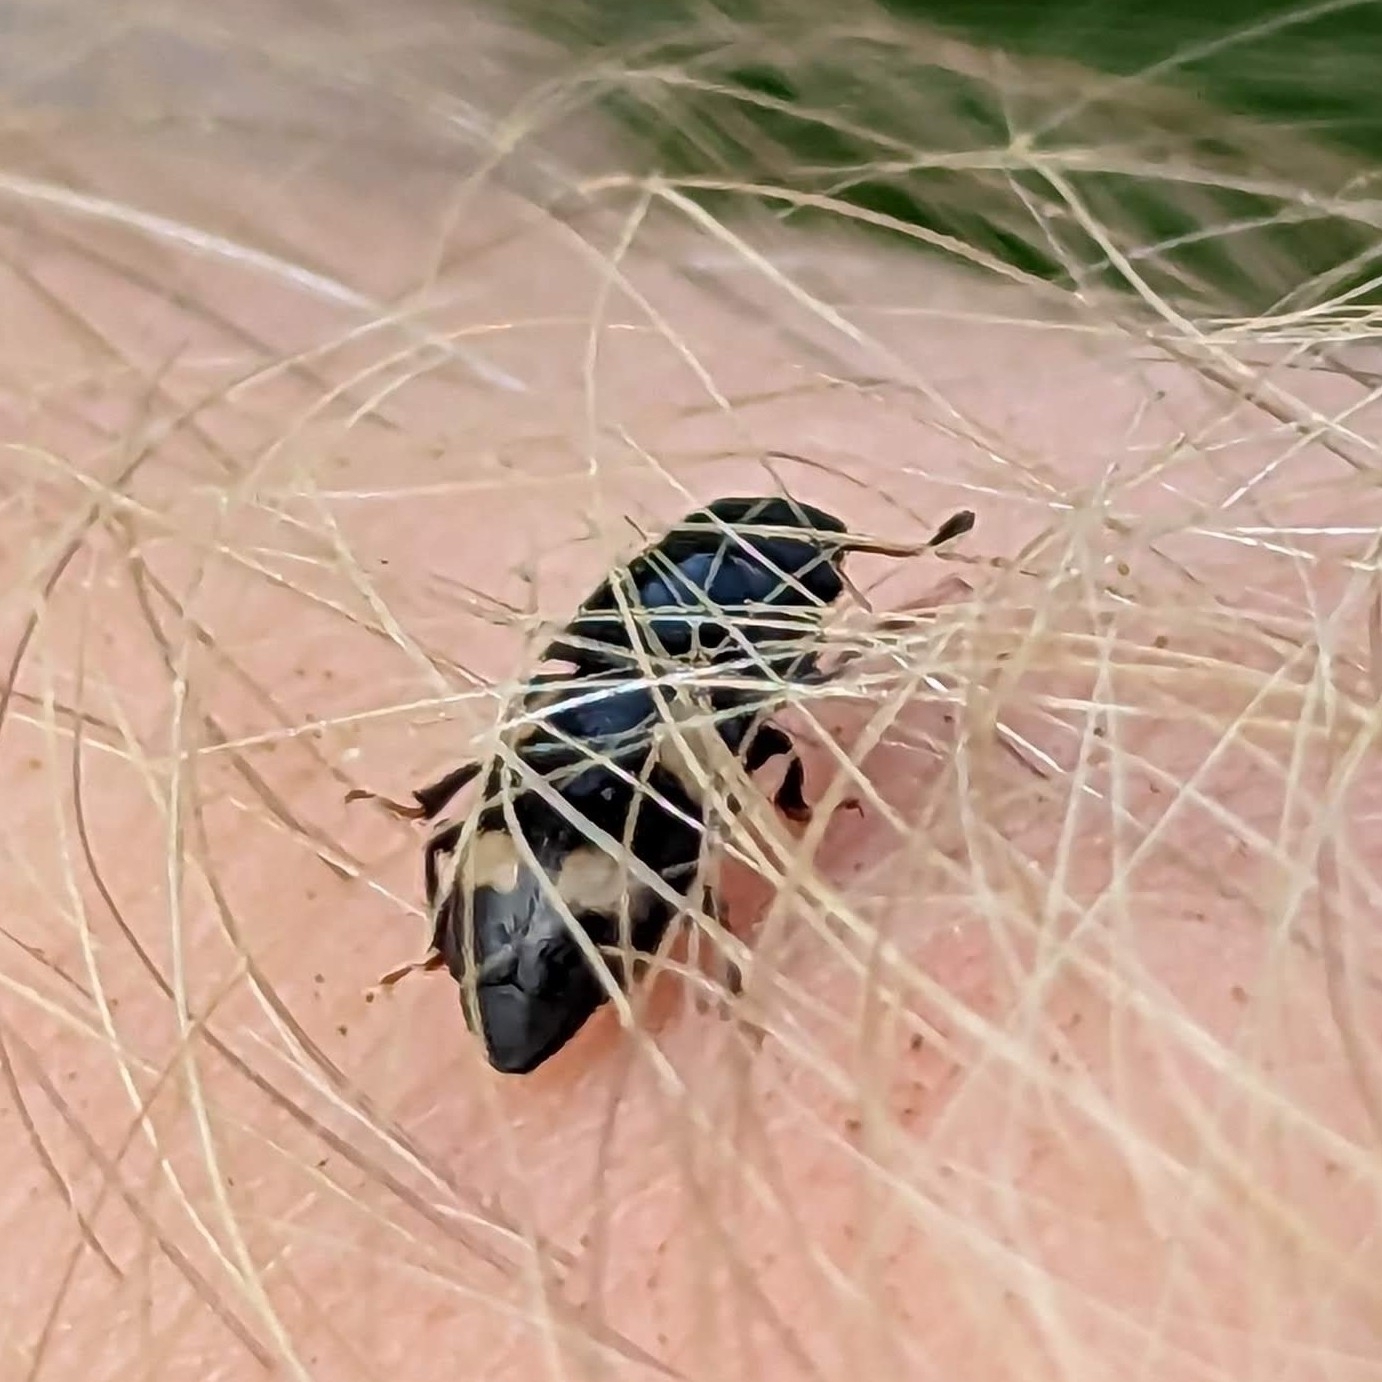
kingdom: Animalia
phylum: Arthropoda
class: Insecta
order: Coleoptera
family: Nitidulidae
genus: Glischrochilus
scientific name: Glischrochilus quadrisignatus
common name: Picnic beetle
